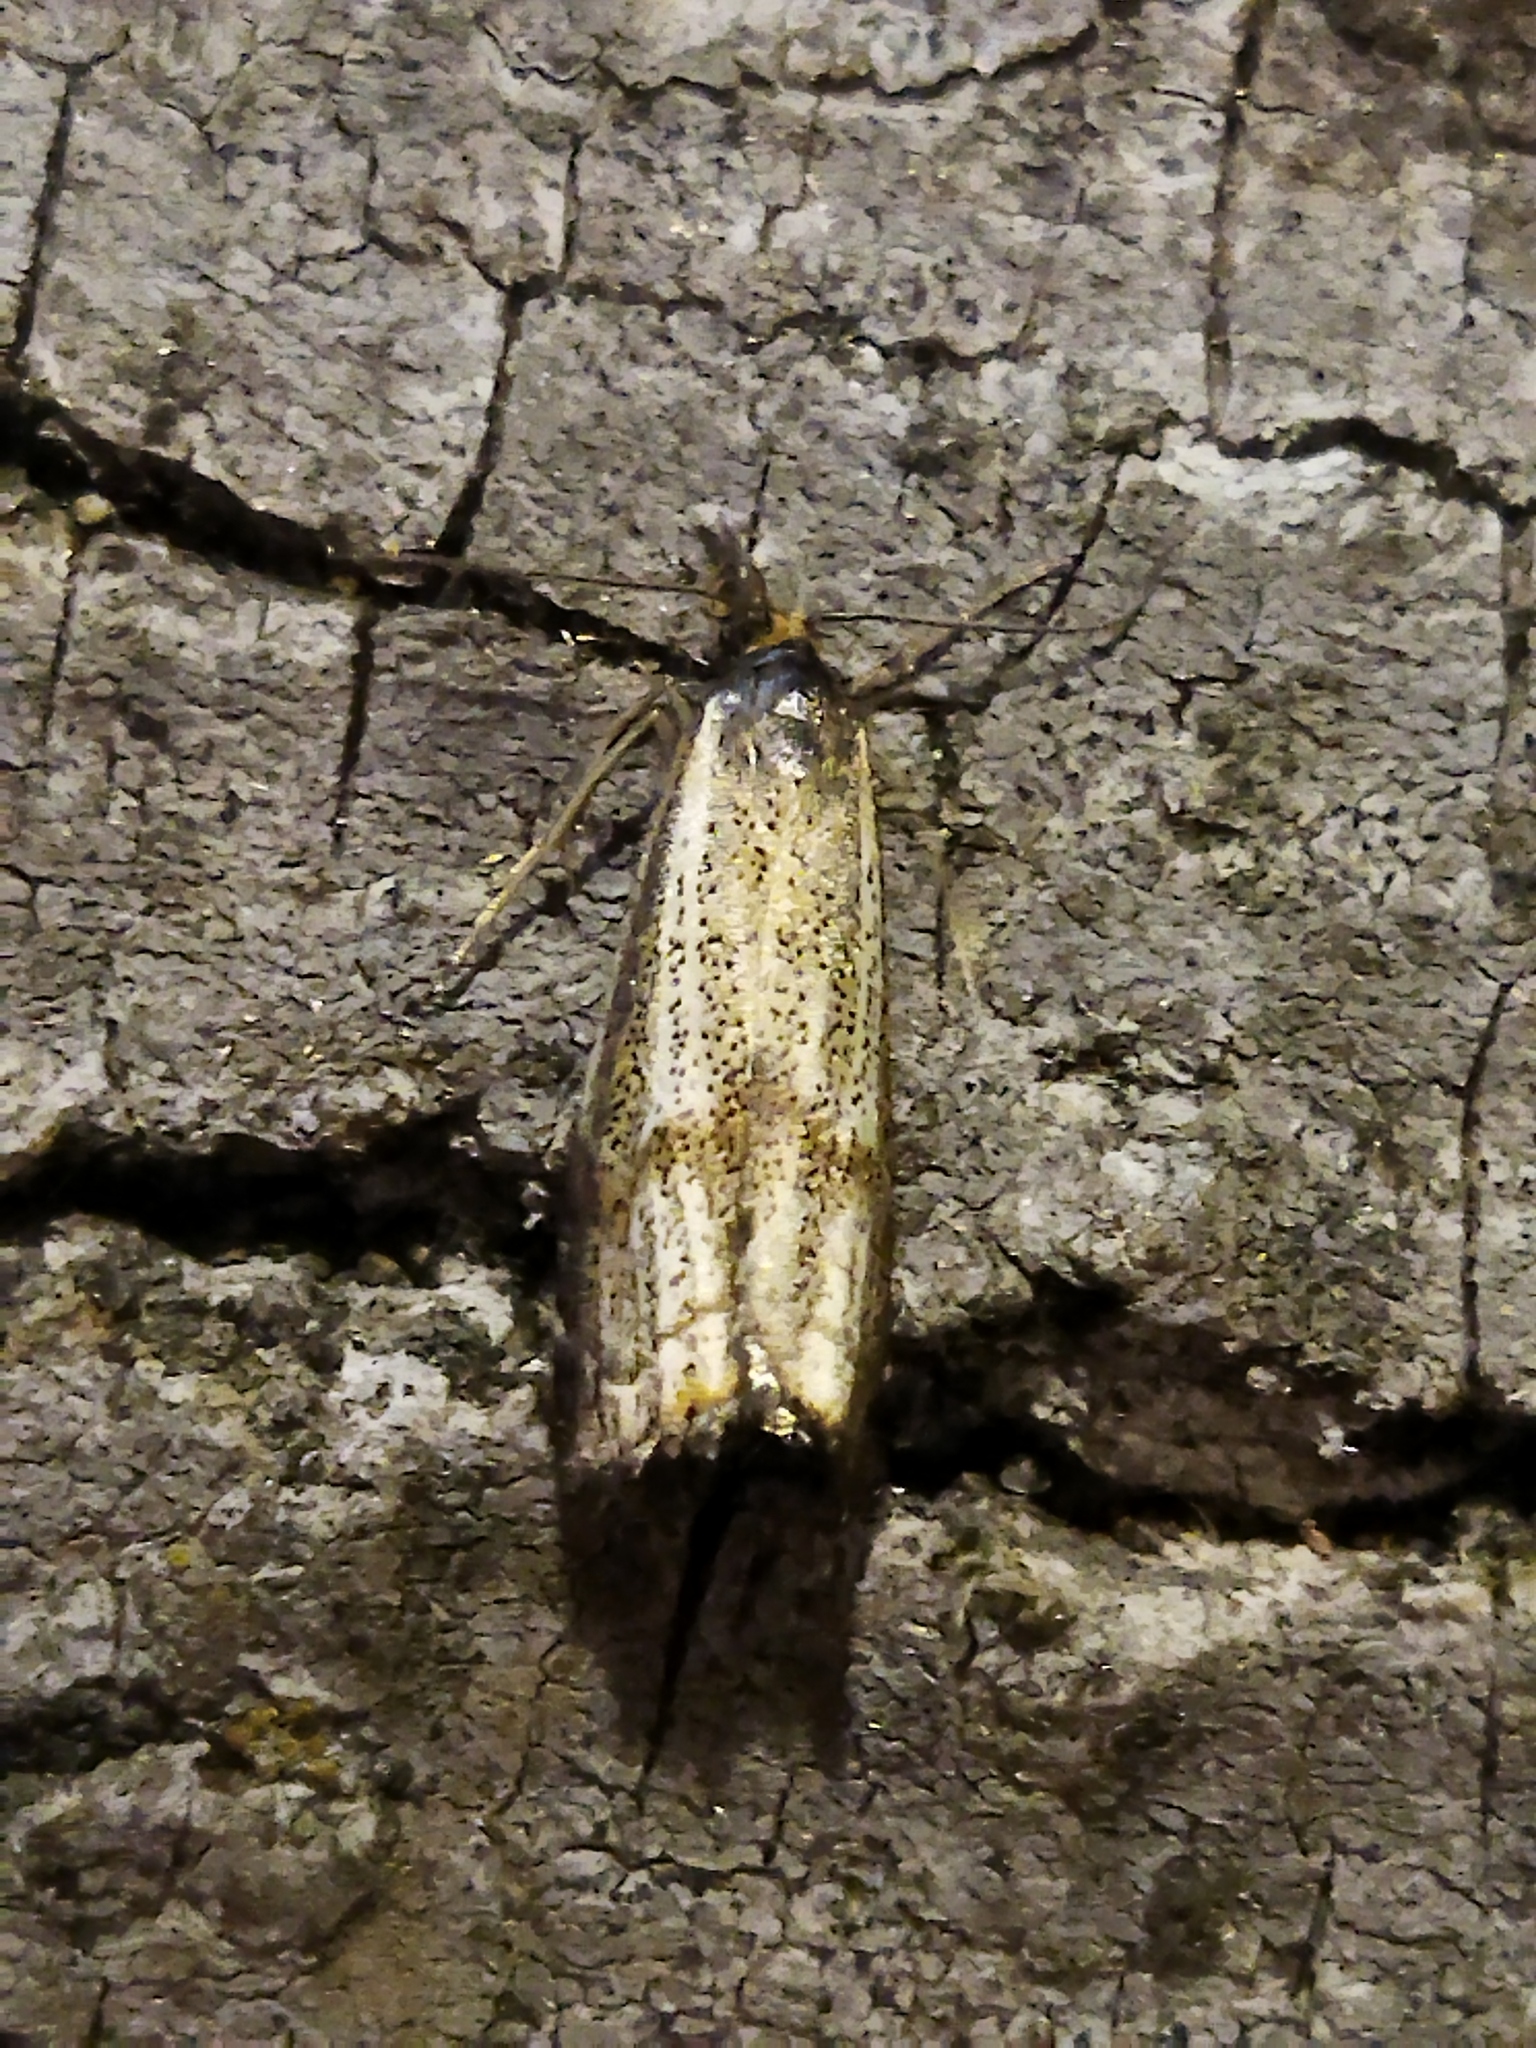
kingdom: Animalia
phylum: Arthropoda
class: Insecta
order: Lepidoptera
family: Crambidae
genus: Thisanotia
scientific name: Thisanotia chrysonuchella
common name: Powdered grass-veneer
